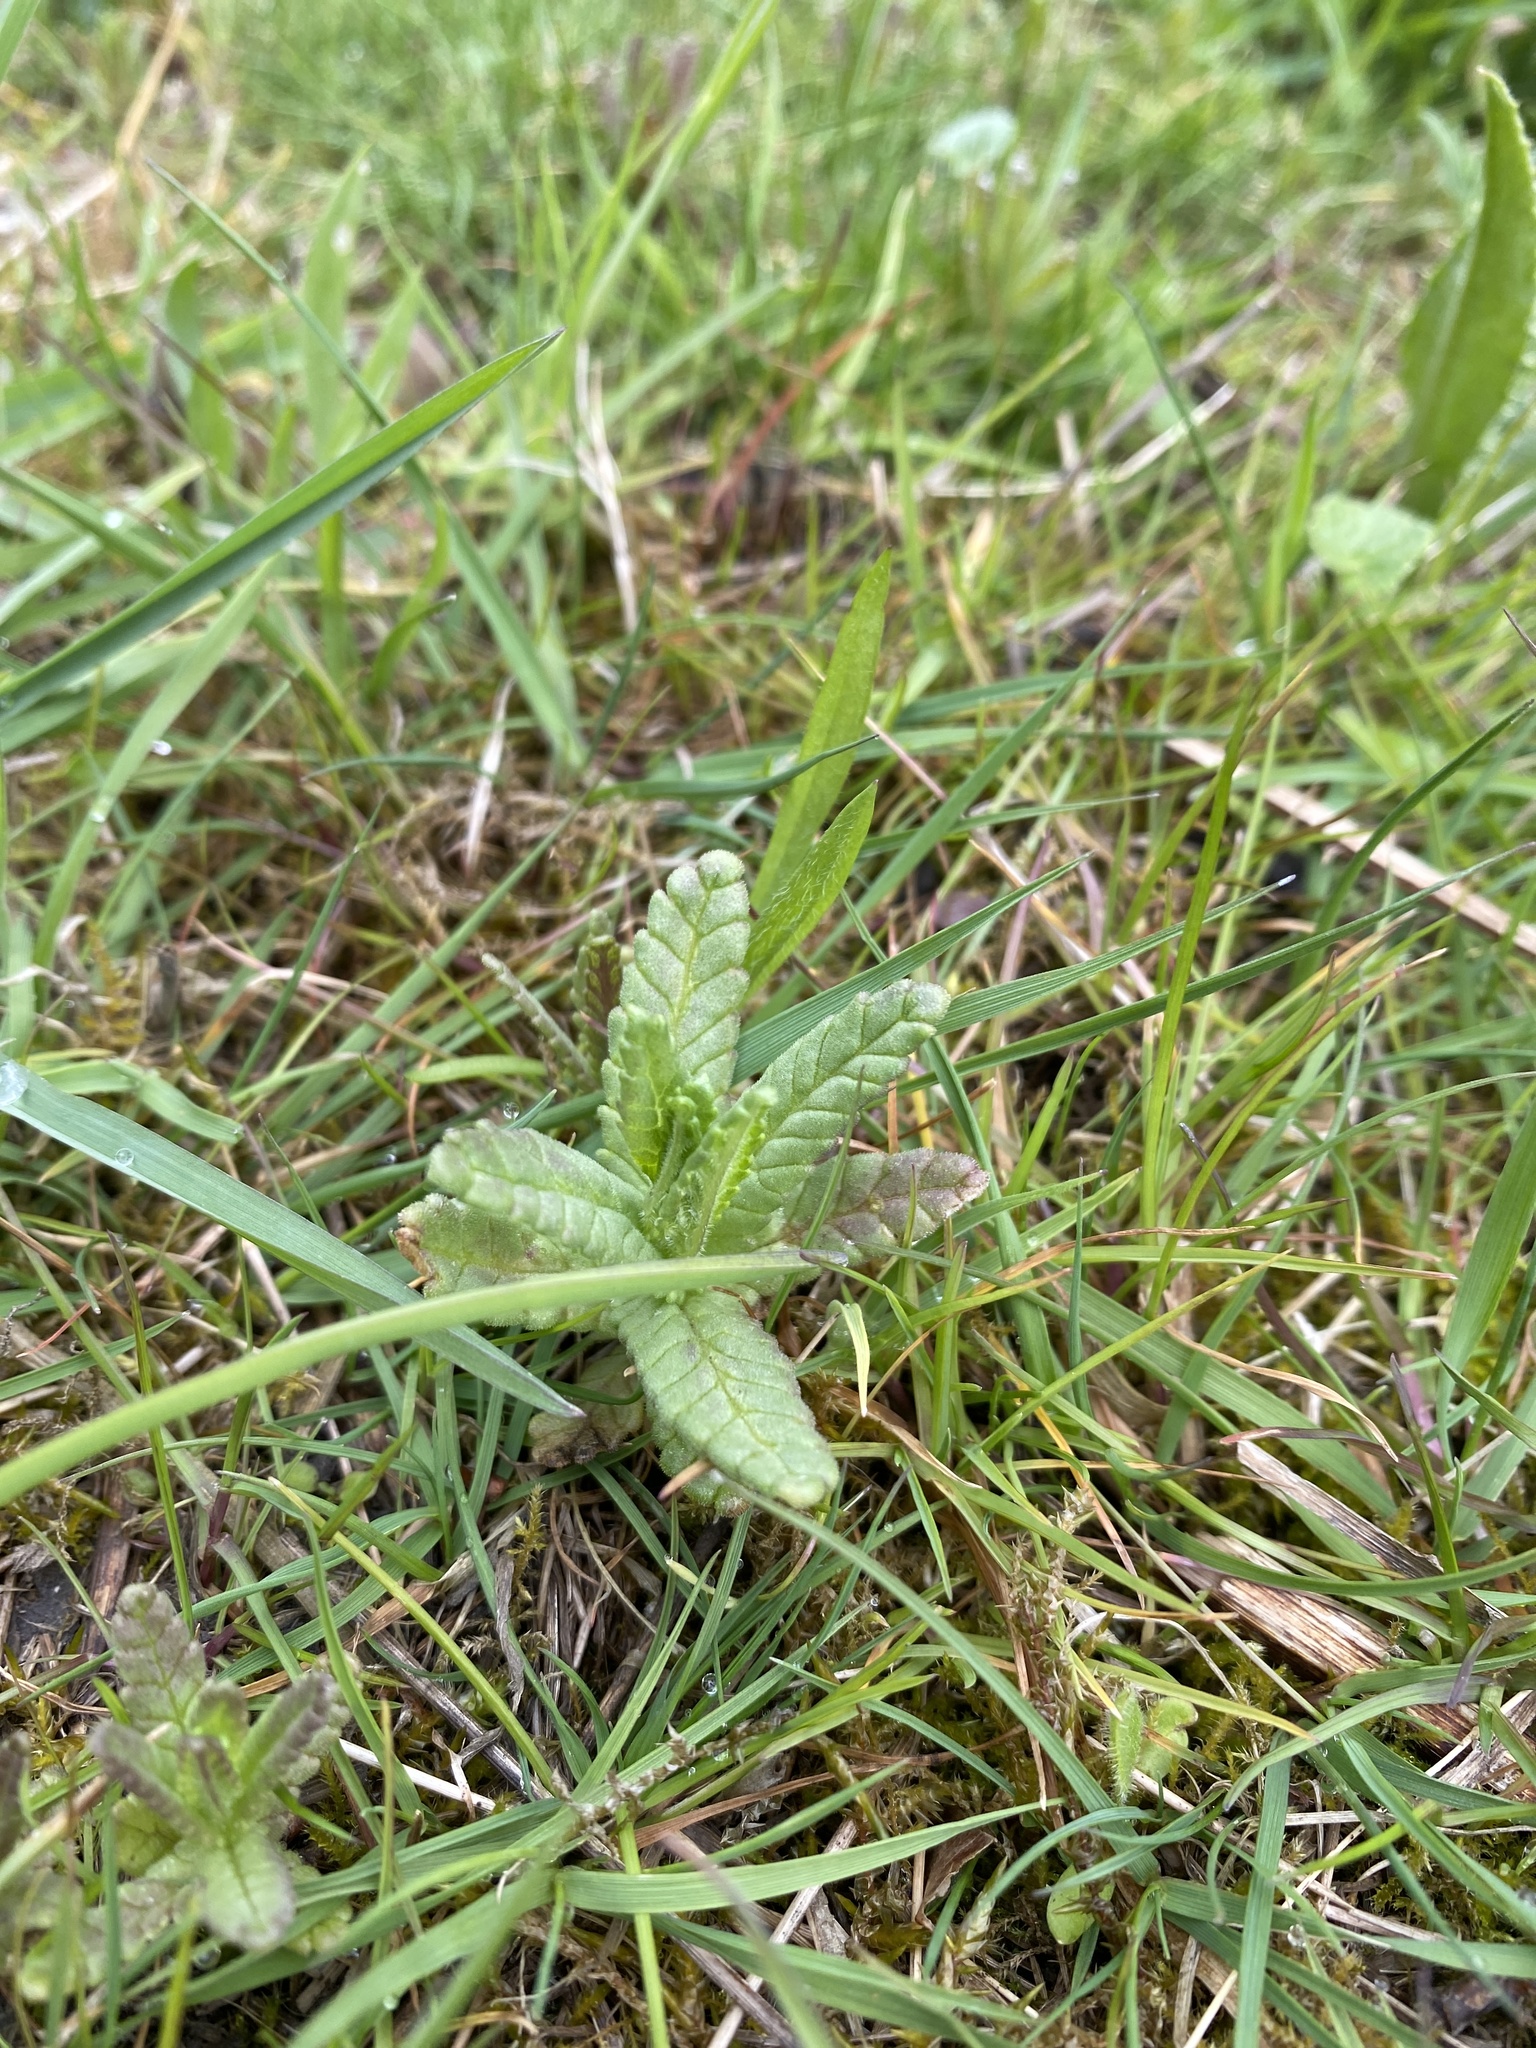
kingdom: Plantae
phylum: Tracheophyta
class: Magnoliopsida
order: Lamiales
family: Orobanchaceae
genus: Rhinanthus
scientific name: Rhinanthus minor
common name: Yellow-rattle
